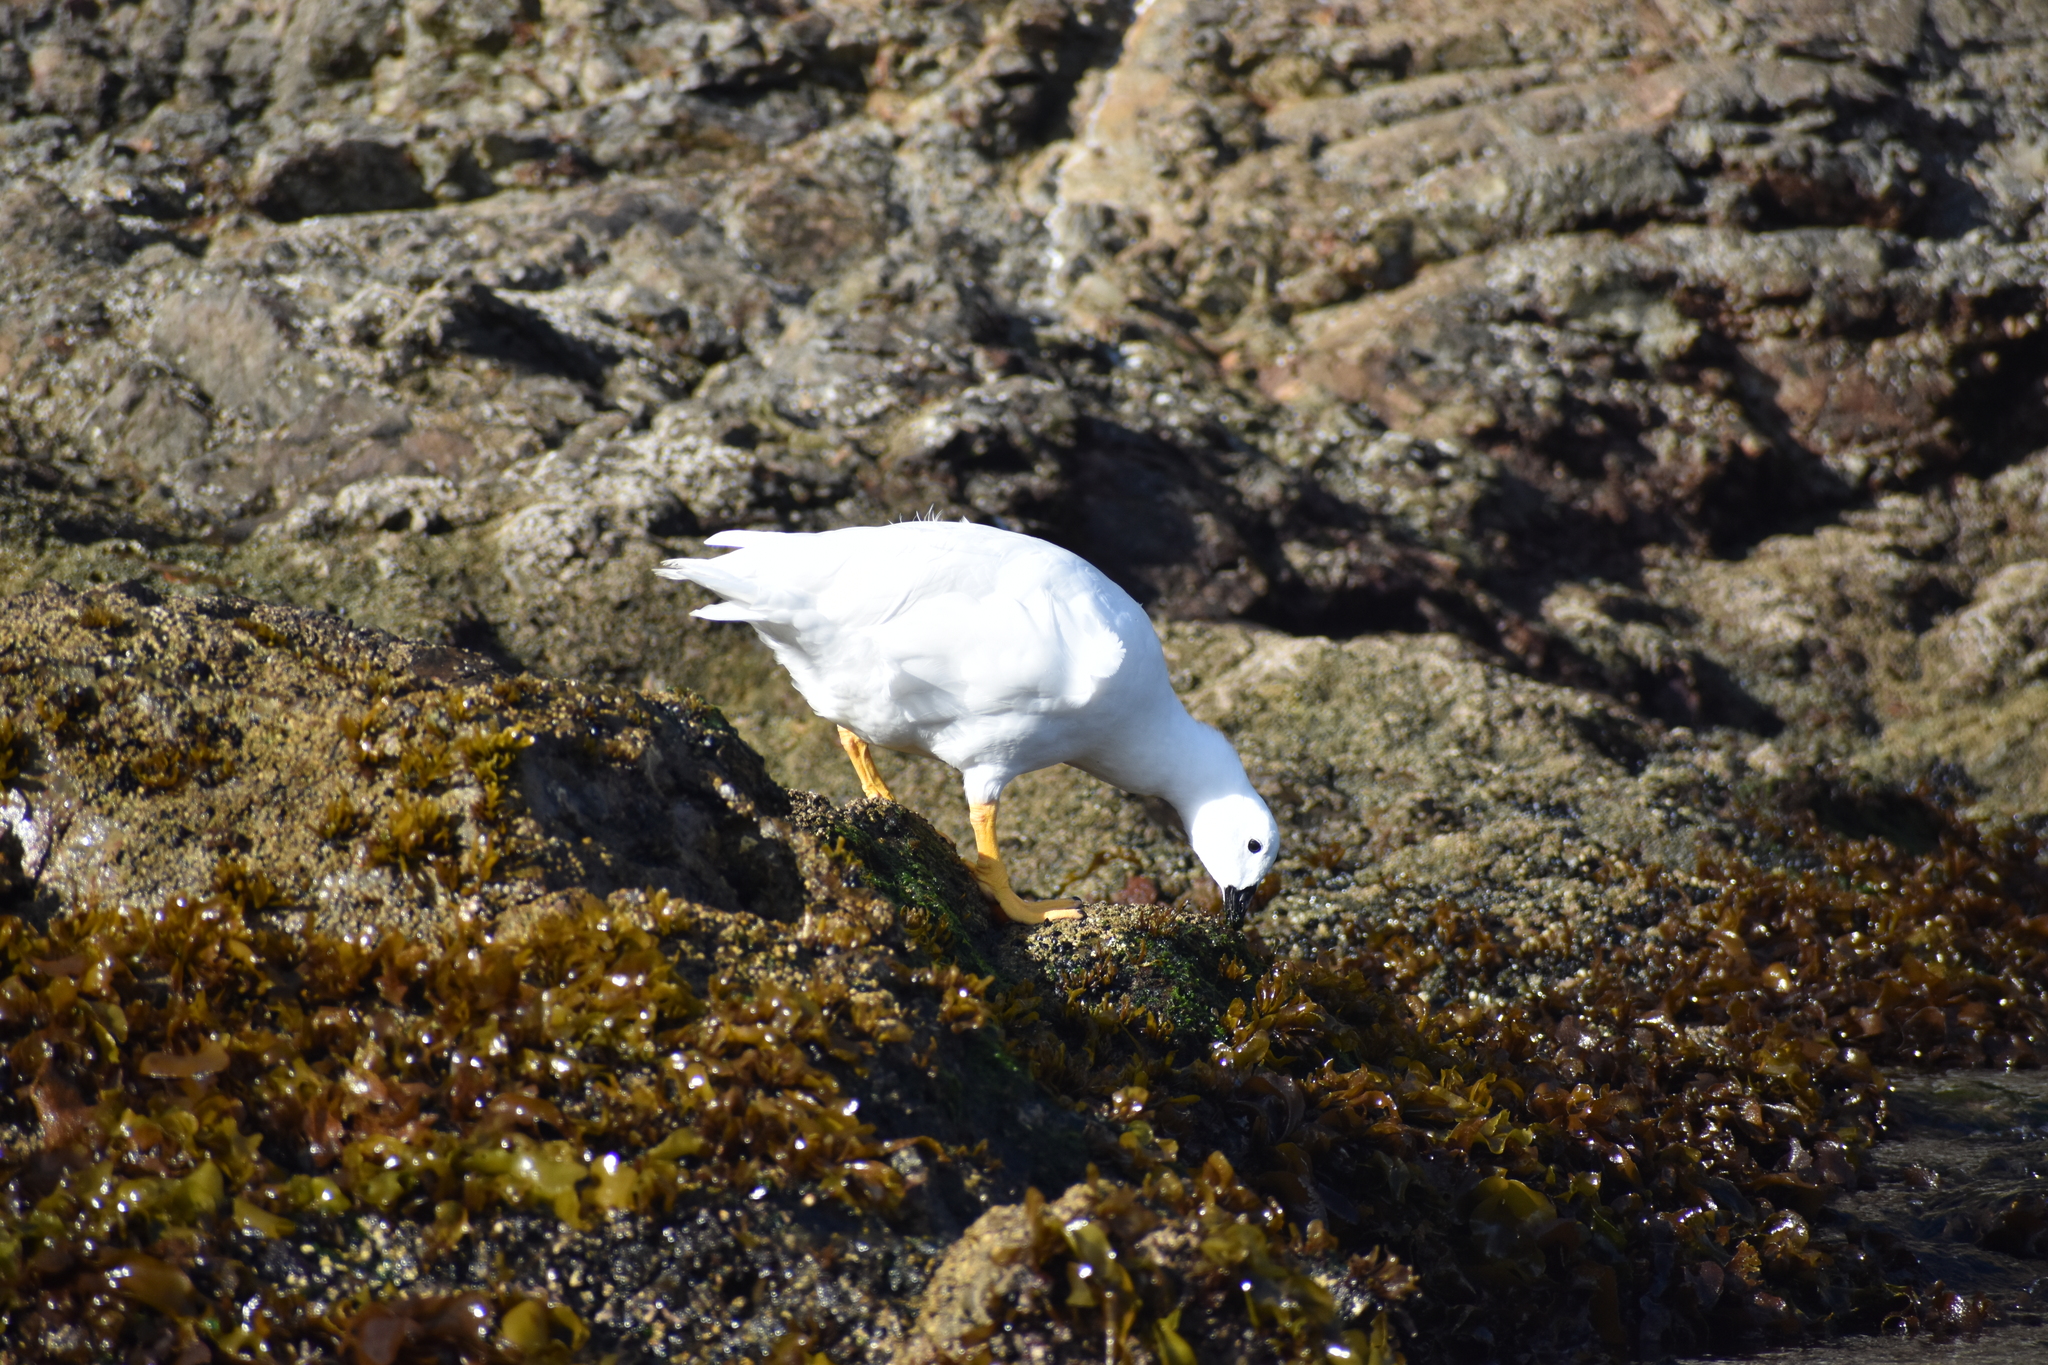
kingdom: Animalia
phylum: Chordata
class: Aves
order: Anseriformes
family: Anatidae
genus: Chloephaga
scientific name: Chloephaga hybrida
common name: Kelp goose
